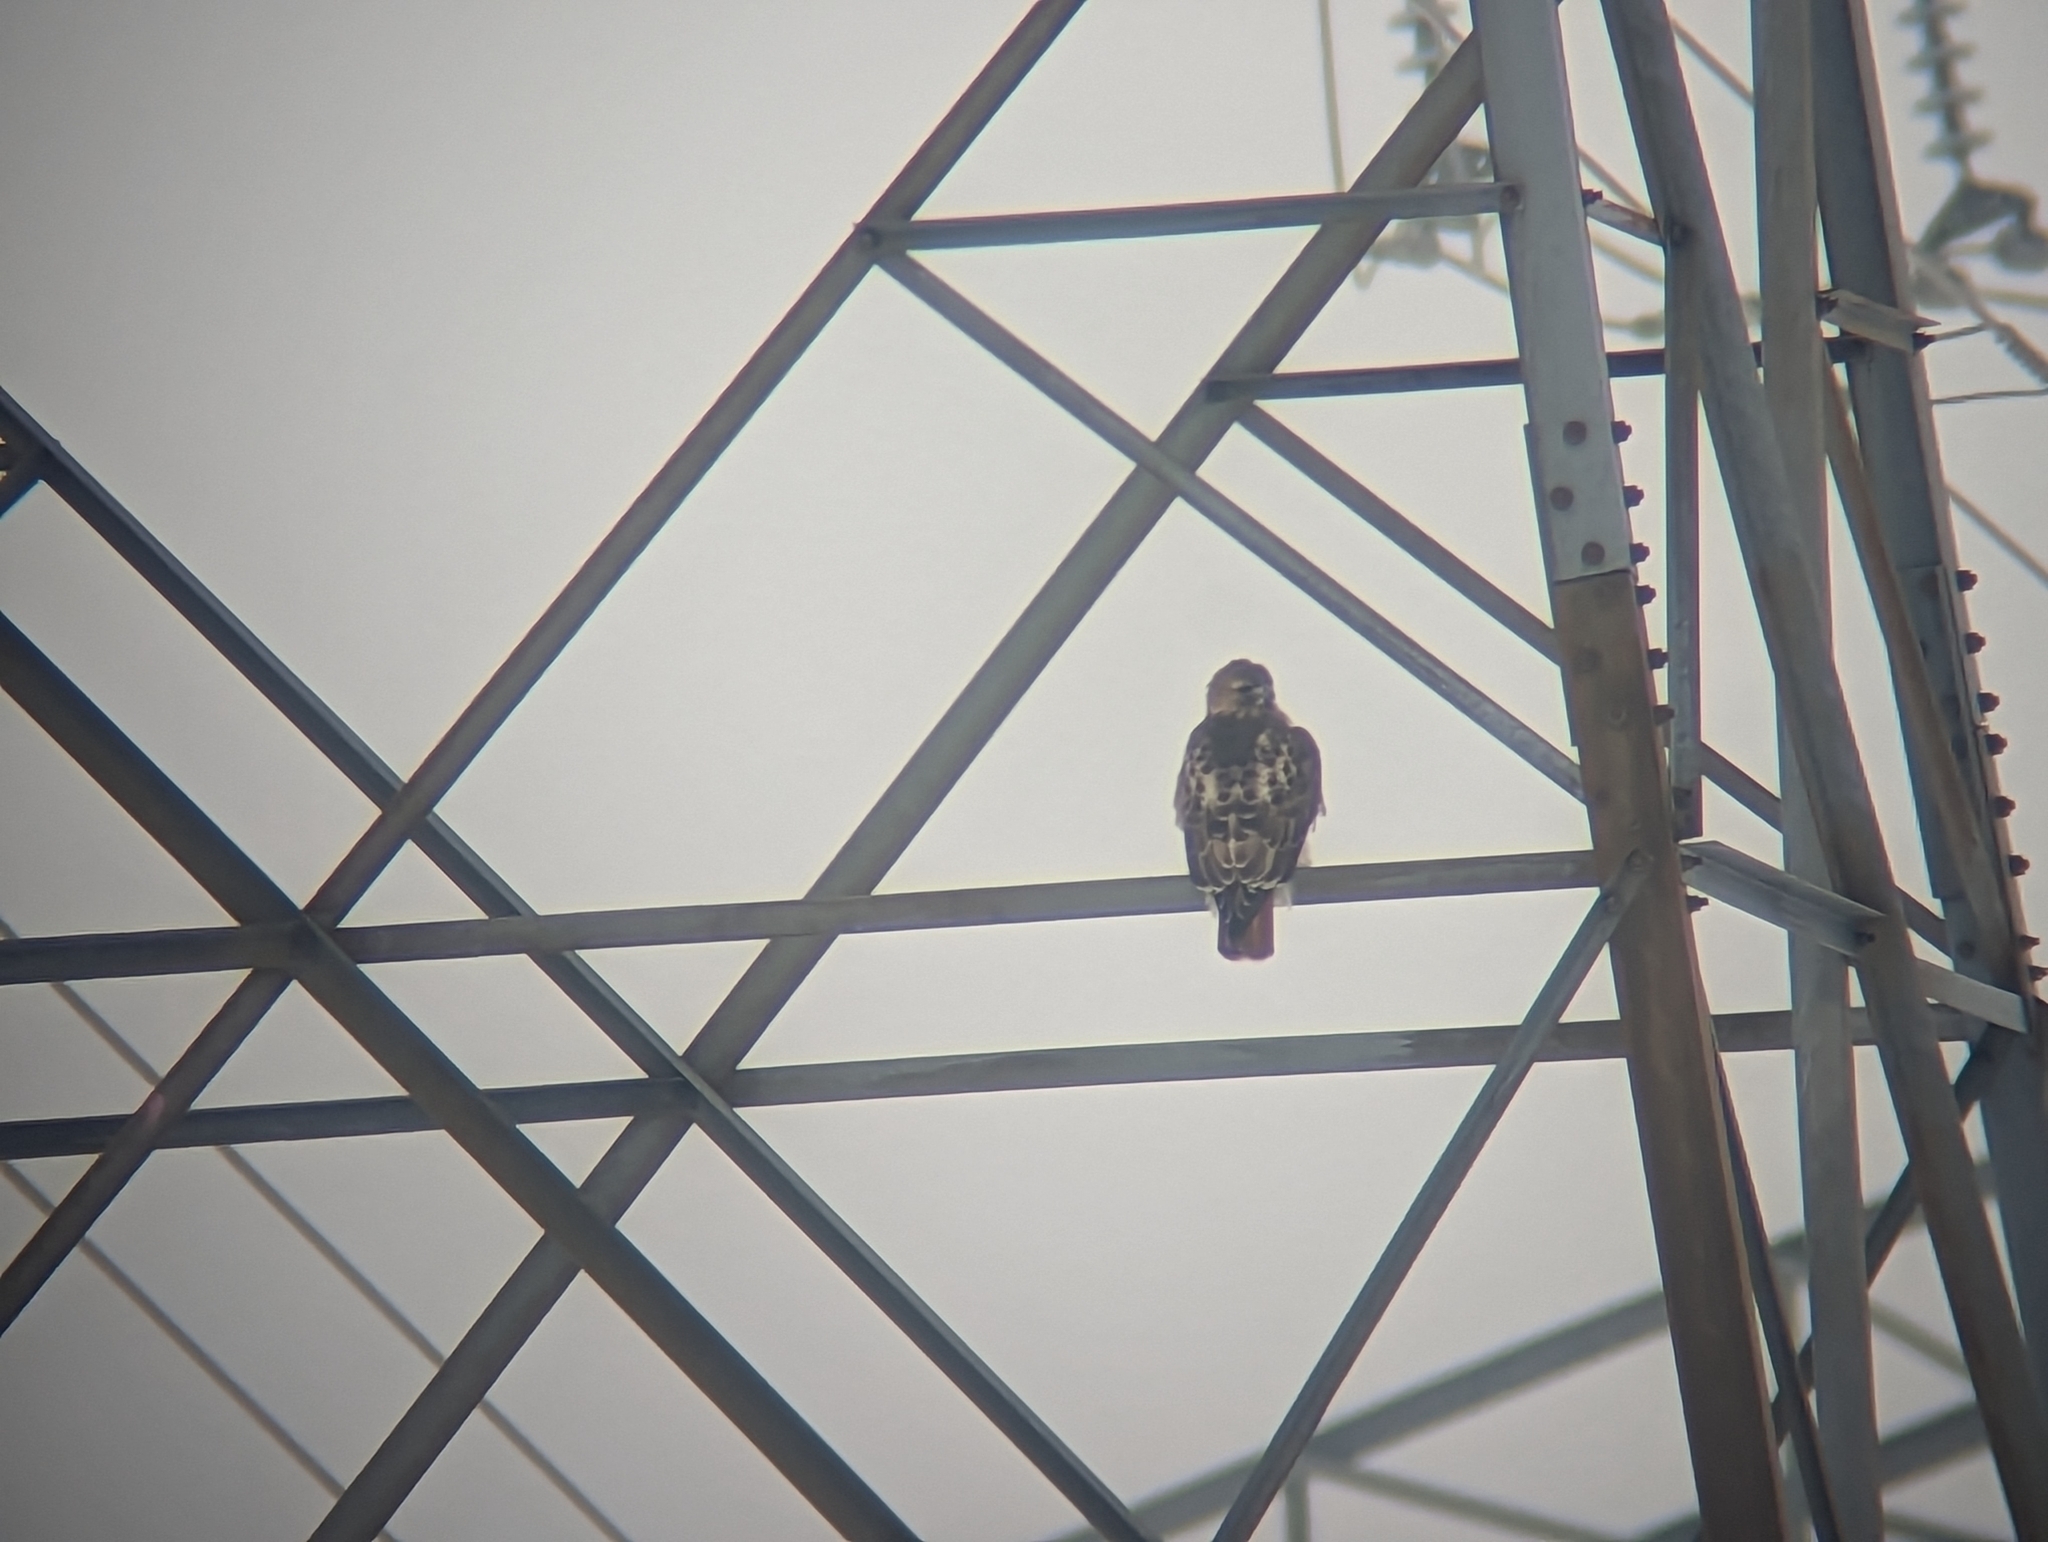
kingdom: Animalia
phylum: Chordata
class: Aves
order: Accipitriformes
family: Accipitridae
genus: Buteo
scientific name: Buteo jamaicensis
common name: Red-tailed hawk
